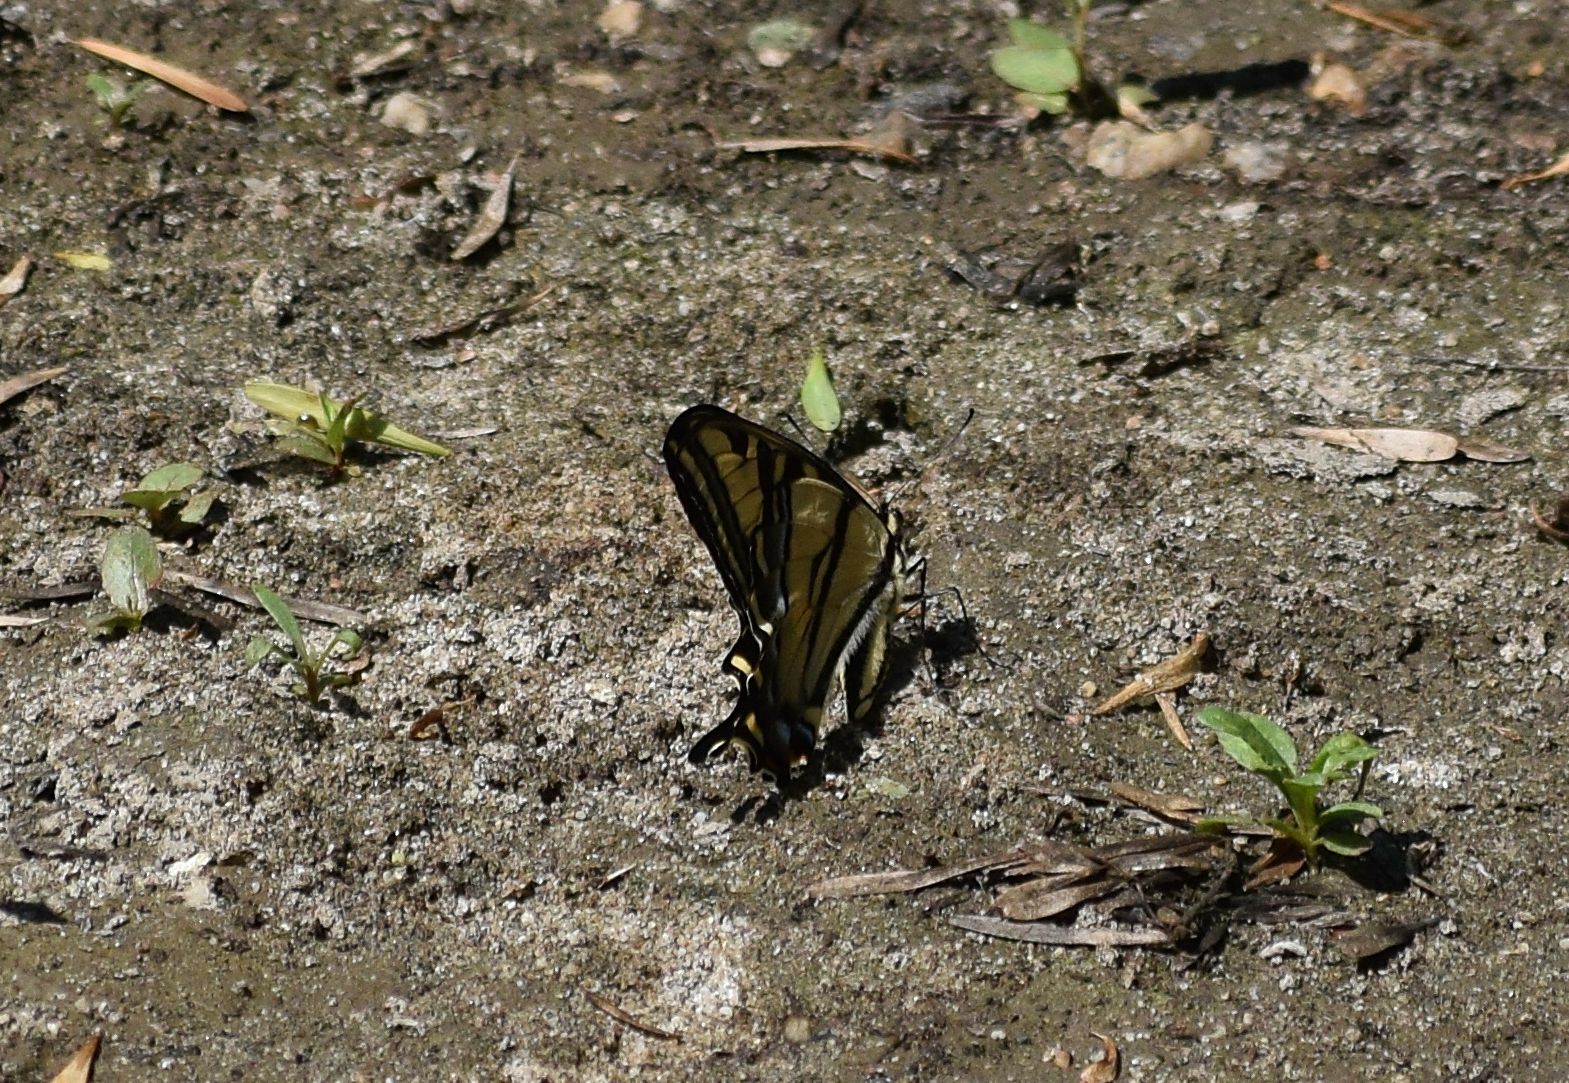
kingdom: Animalia
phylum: Arthropoda
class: Insecta
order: Lepidoptera
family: Papilionidae
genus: Papilio
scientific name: Papilio rutulus
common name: Western tiger swallowtail
